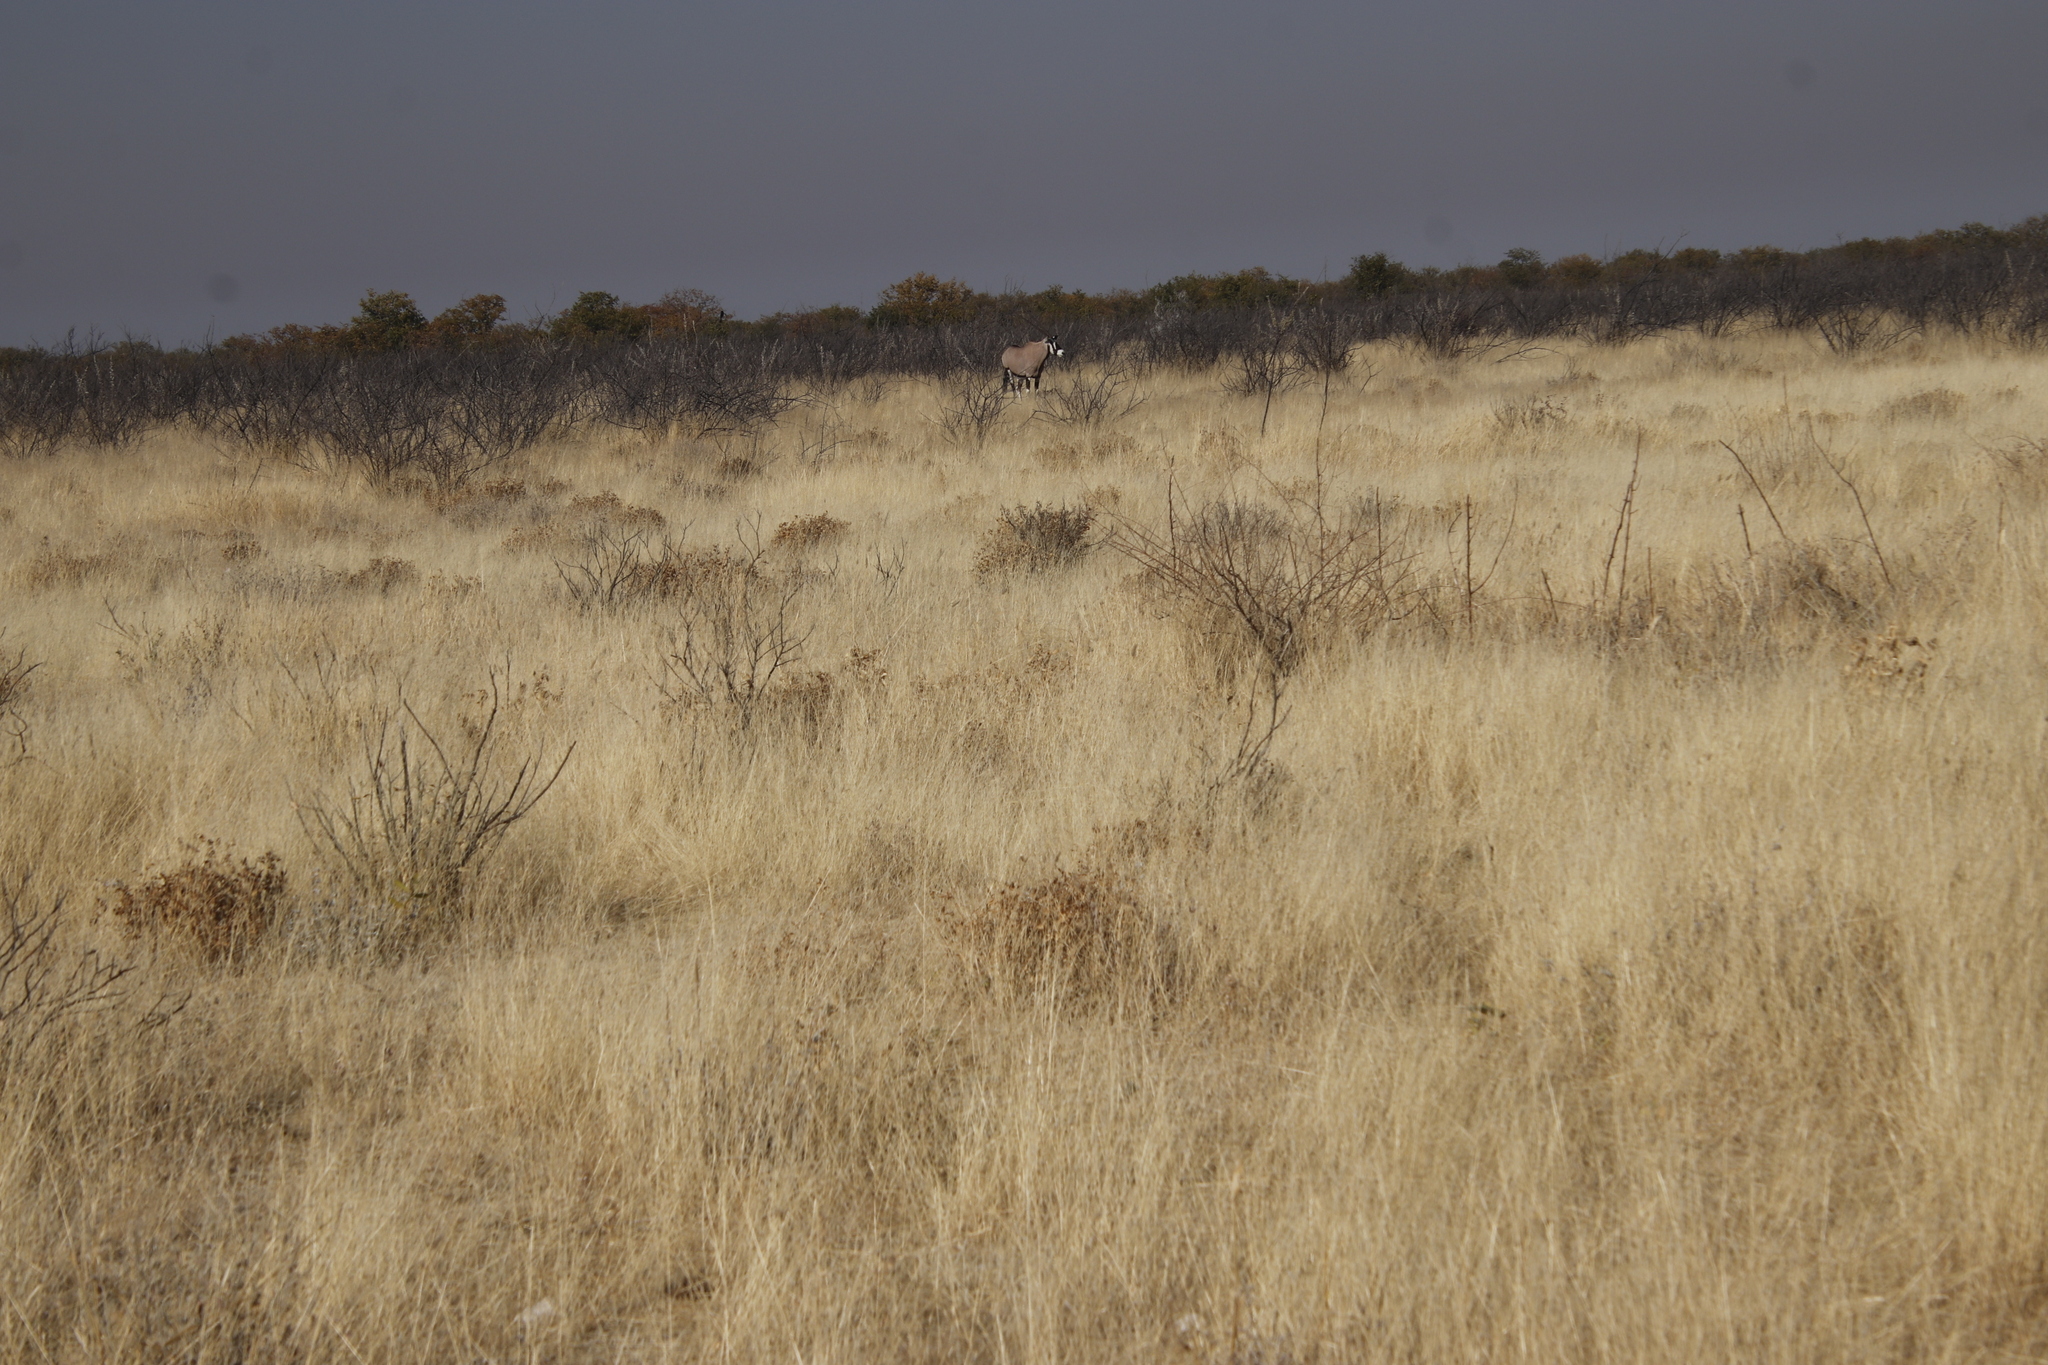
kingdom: Animalia
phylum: Chordata
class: Mammalia
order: Artiodactyla
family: Bovidae
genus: Oryx
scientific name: Oryx gazella
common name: Gemsbok
